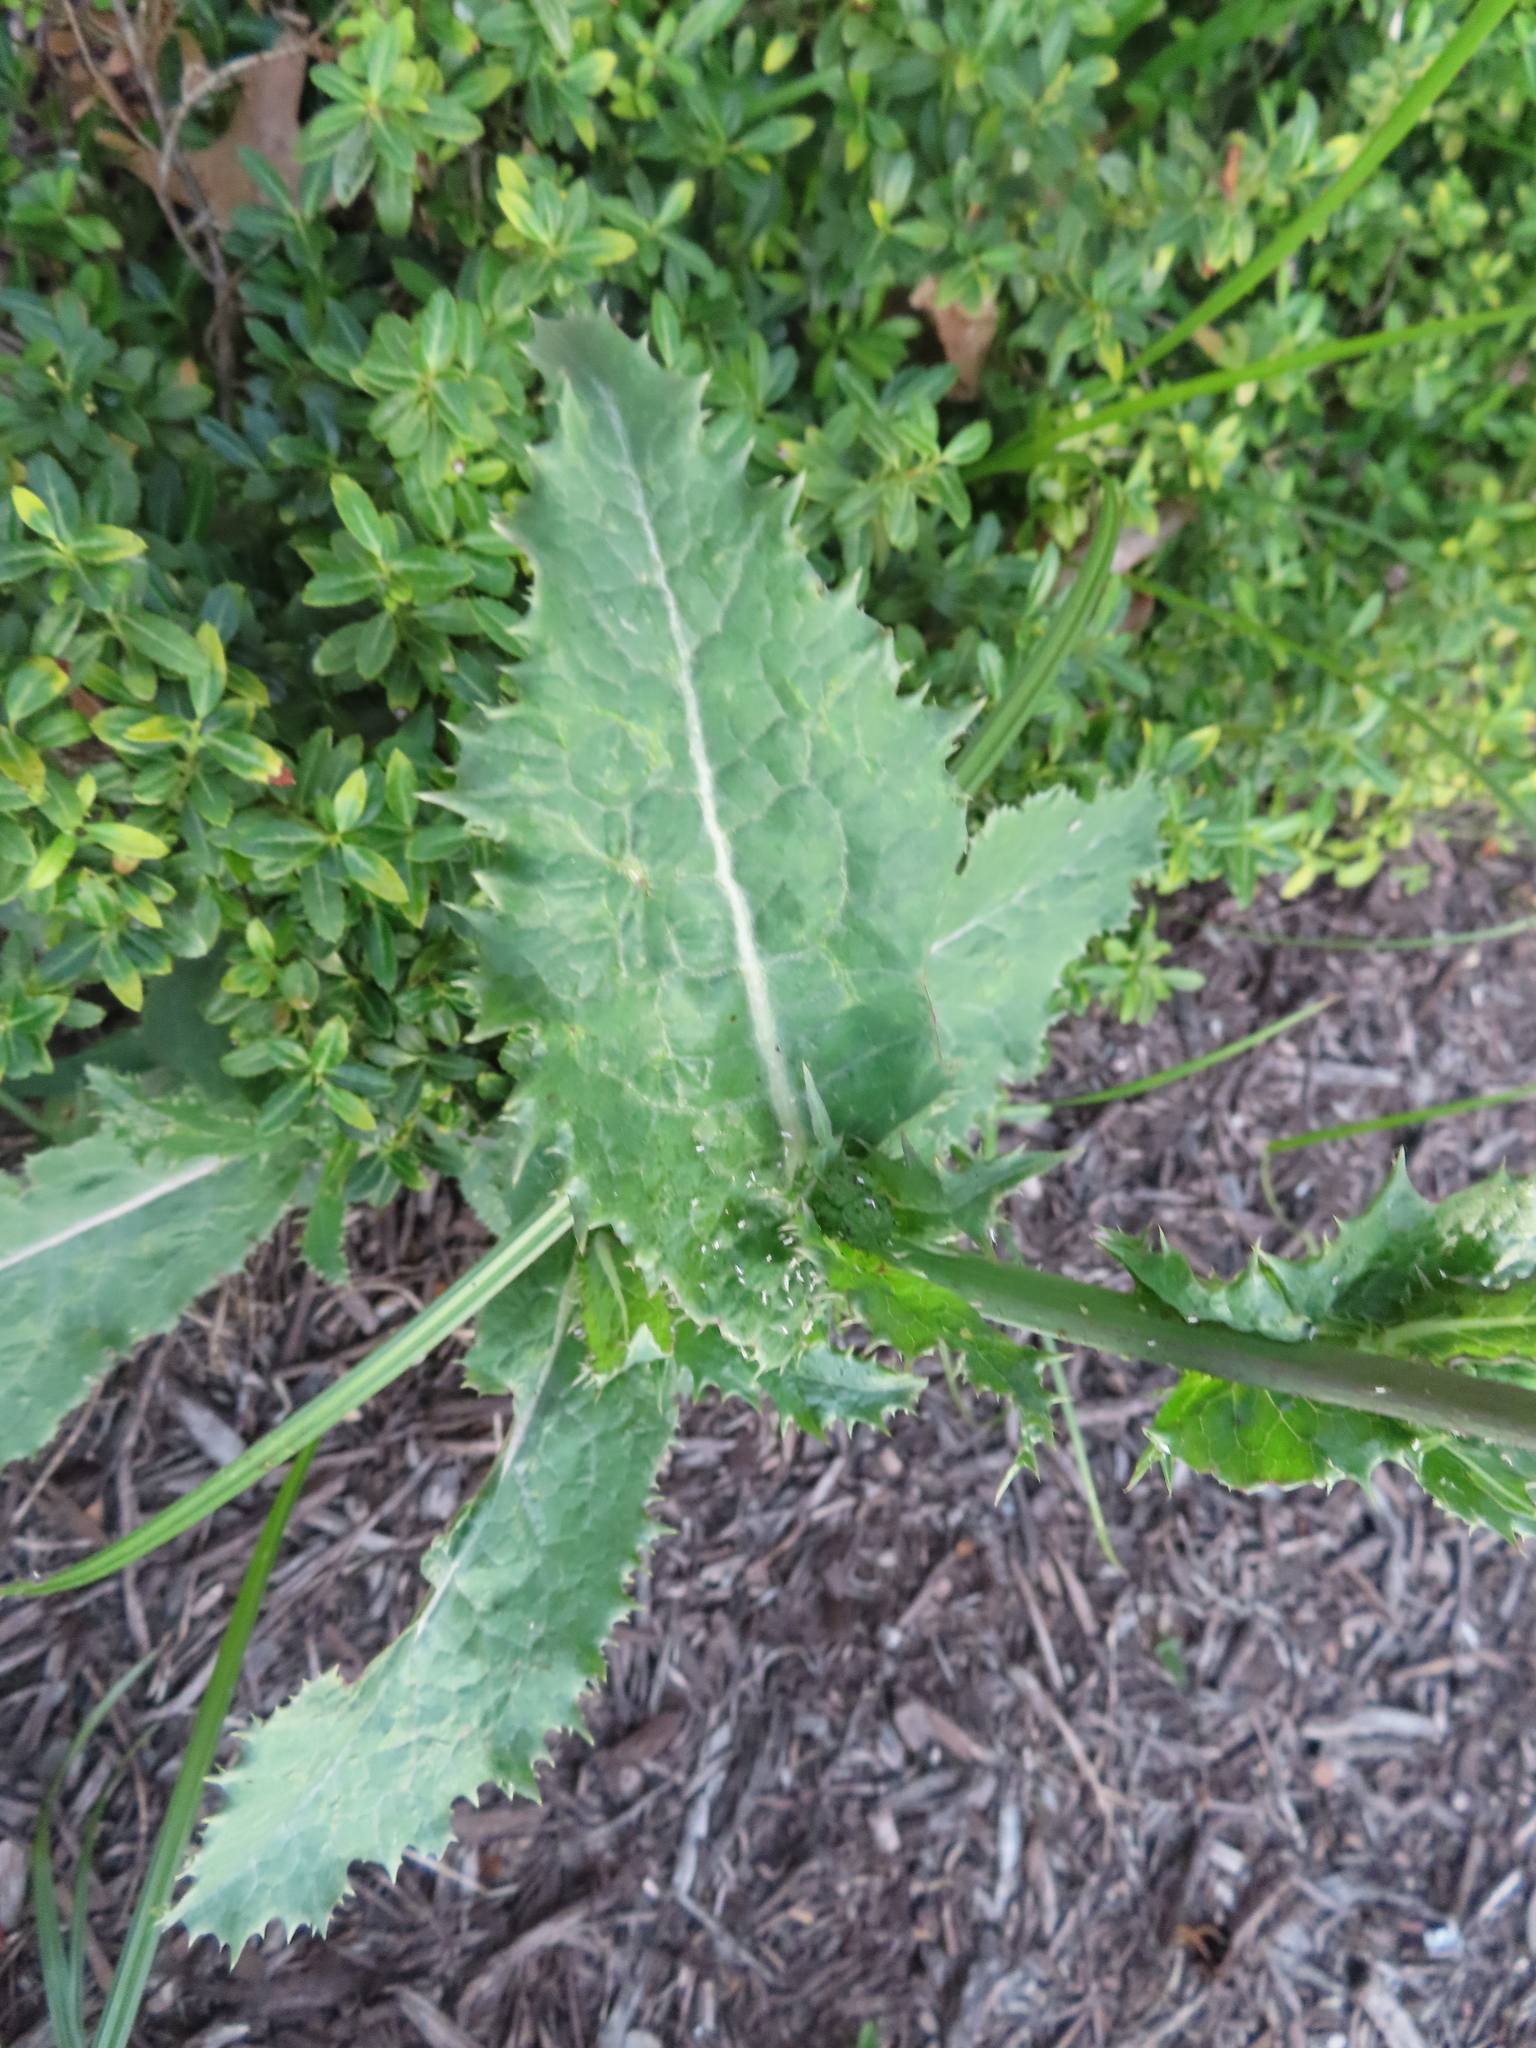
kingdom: Plantae
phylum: Tracheophyta
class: Magnoliopsida
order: Asterales
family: Asteraceae
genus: Sonchus
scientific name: Sonchus asper
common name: Prickly sow-thistle
